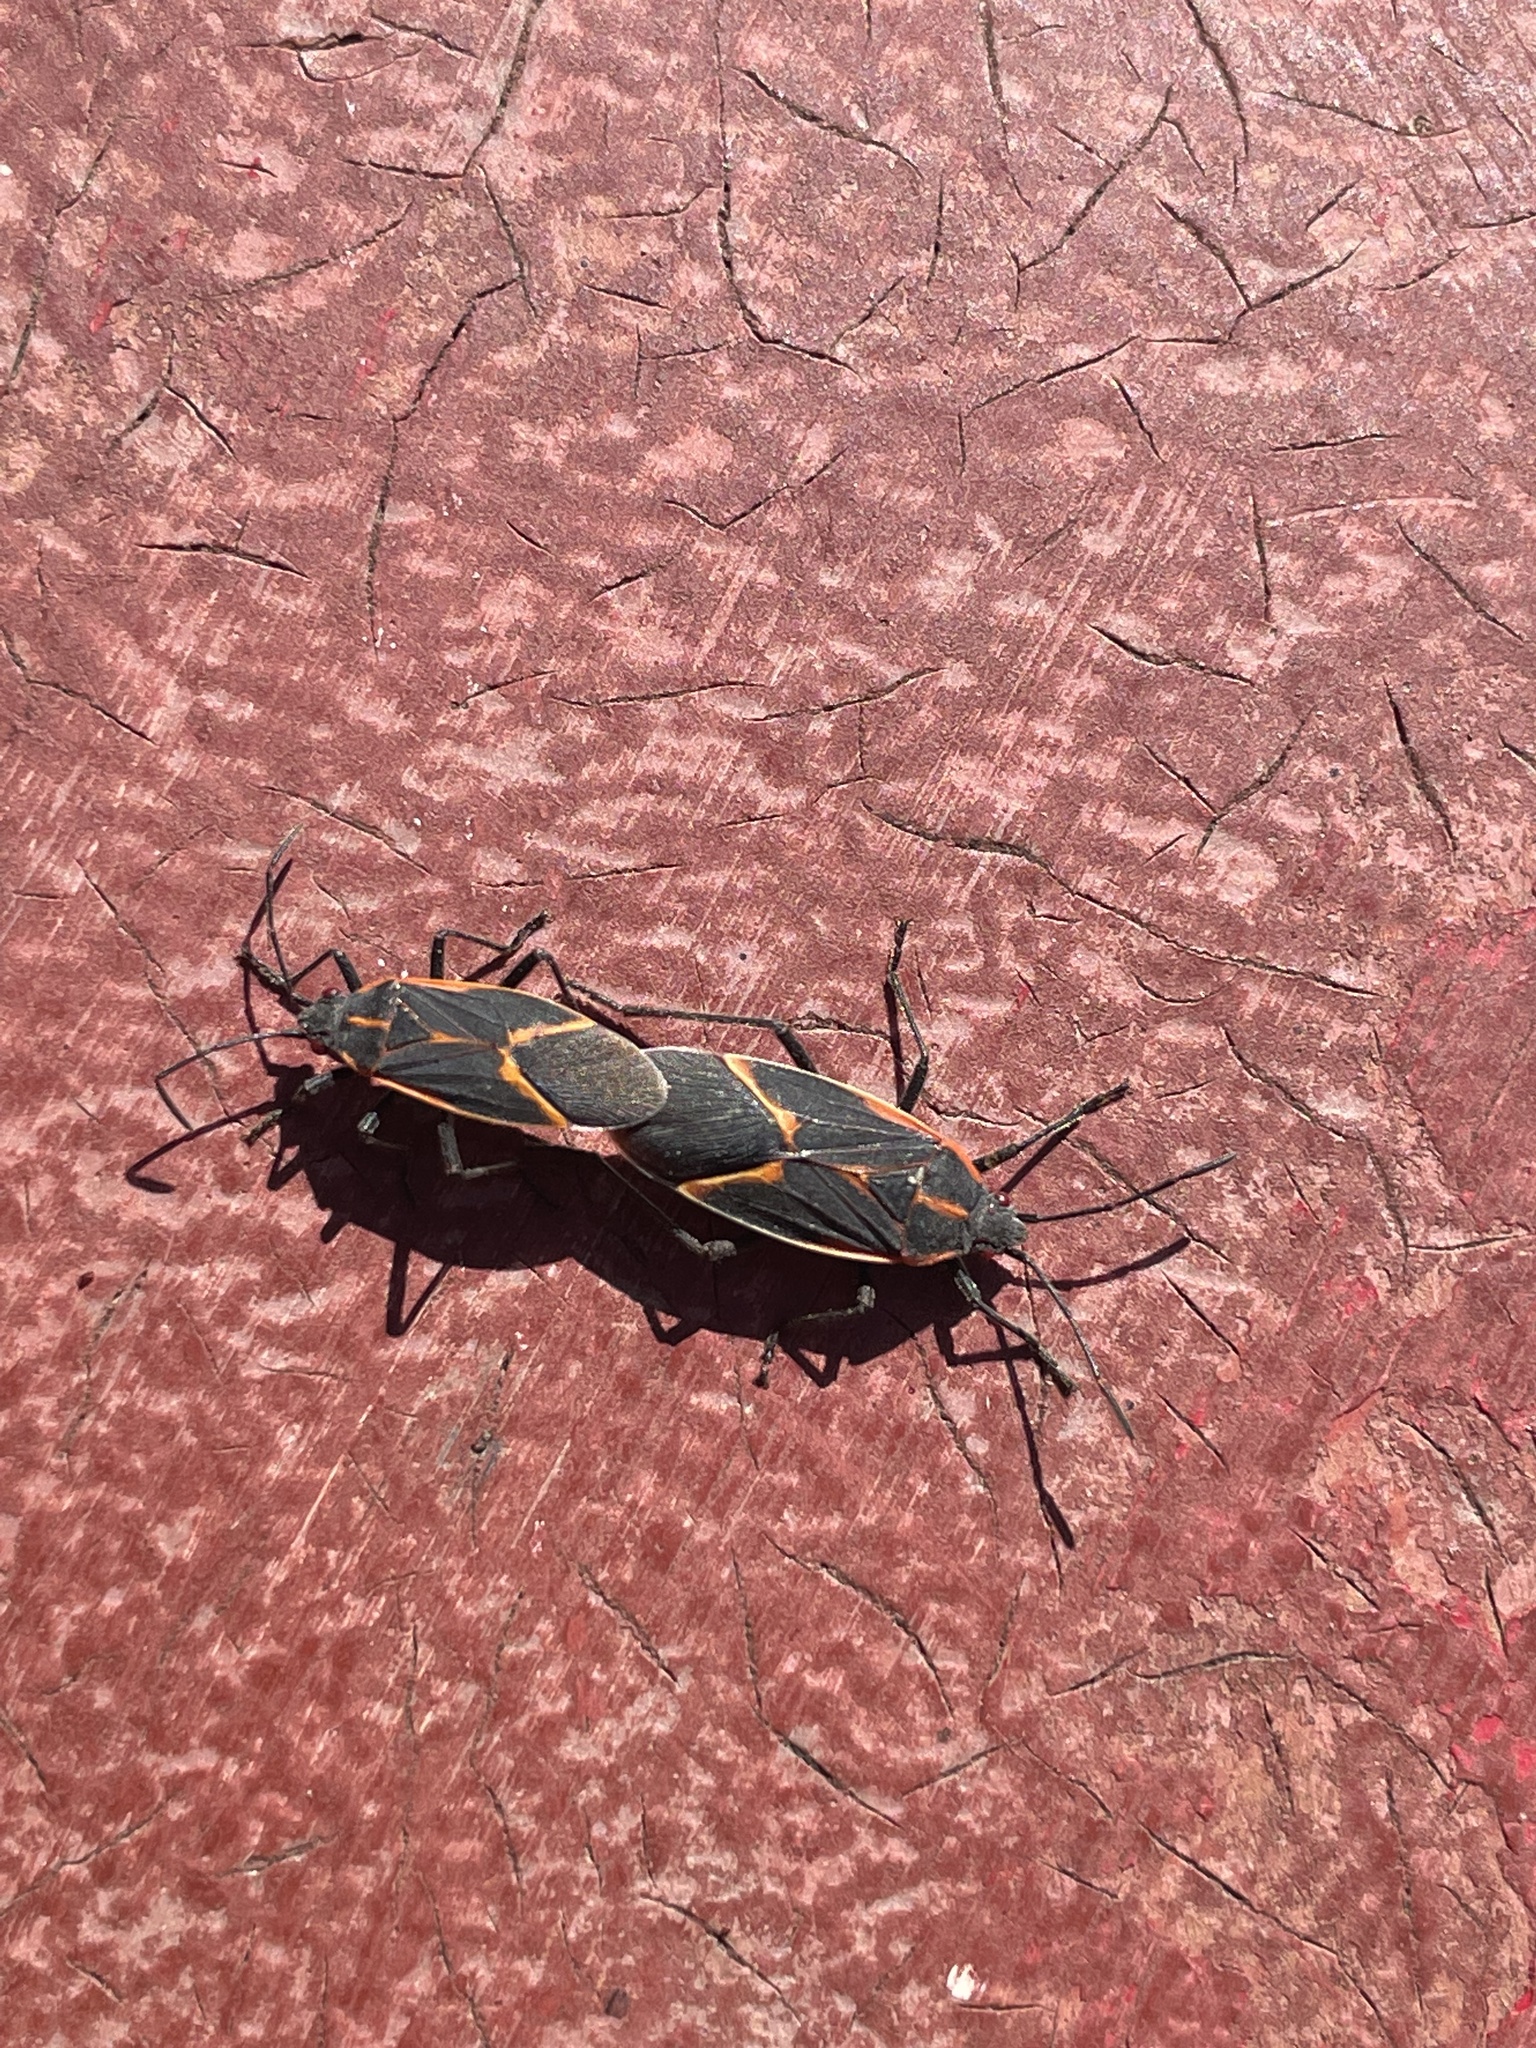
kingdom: Animalia
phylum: Arthropoda
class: Insecta
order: Hemiptera
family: Rhopalidae
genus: Boisea
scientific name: Boisea trivittata
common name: Boxelder bug
